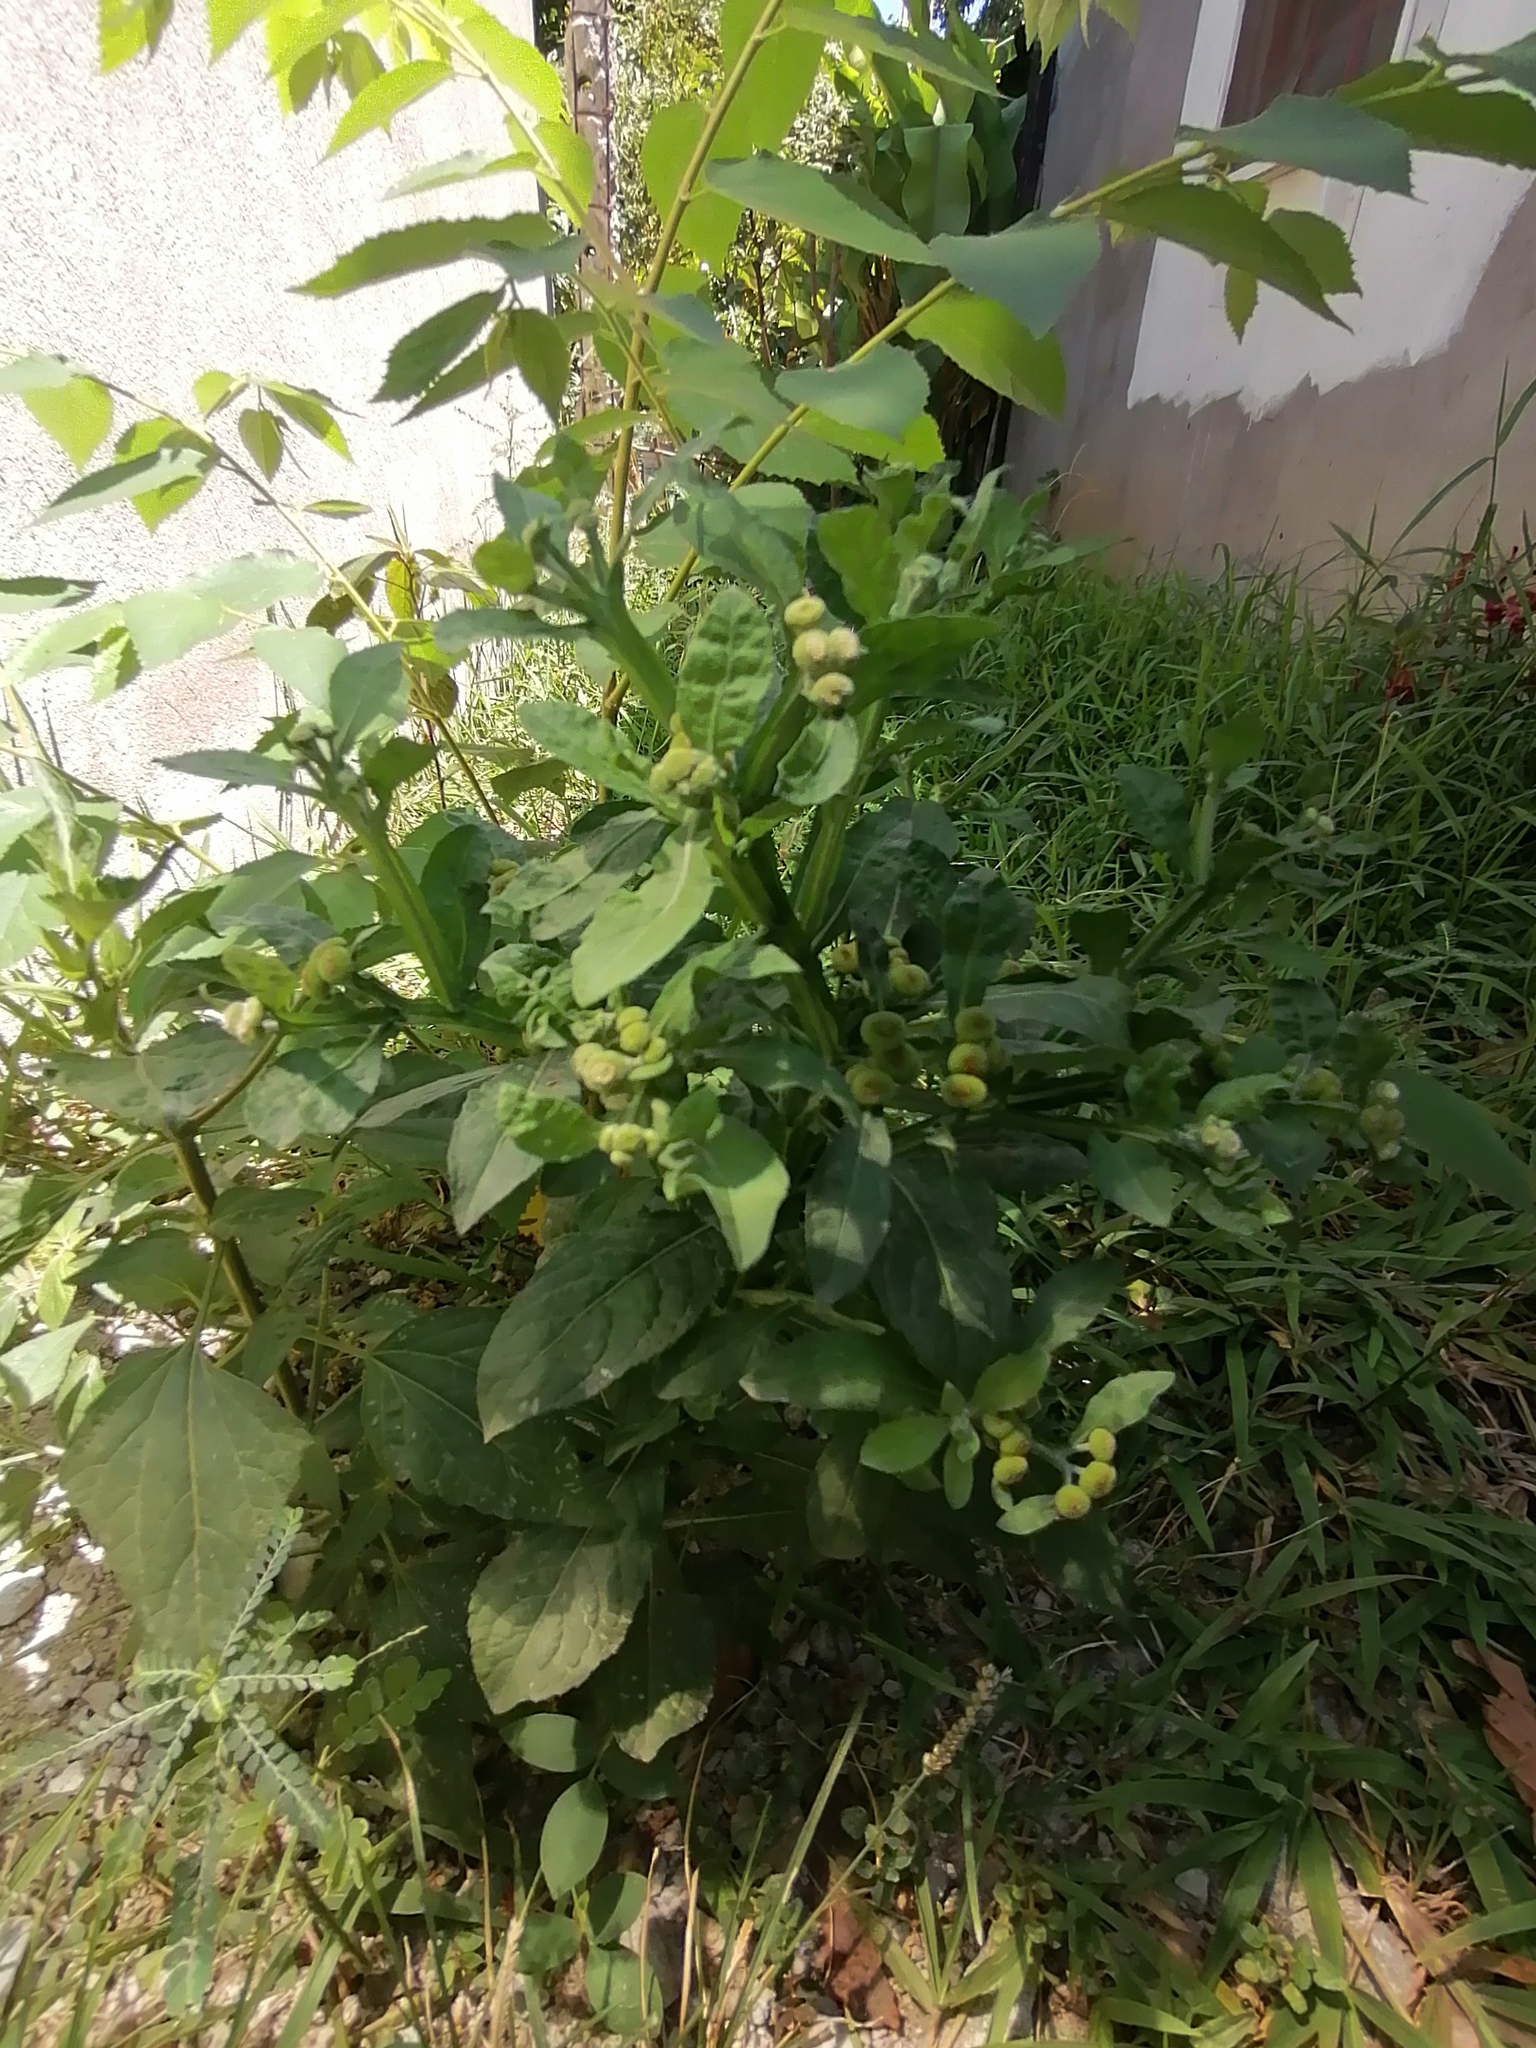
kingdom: Plantae
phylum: Tracheophyta
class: Magnoliopsida
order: Asterales
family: Asteraceae
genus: Epaltes
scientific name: Epaltes mexicana
